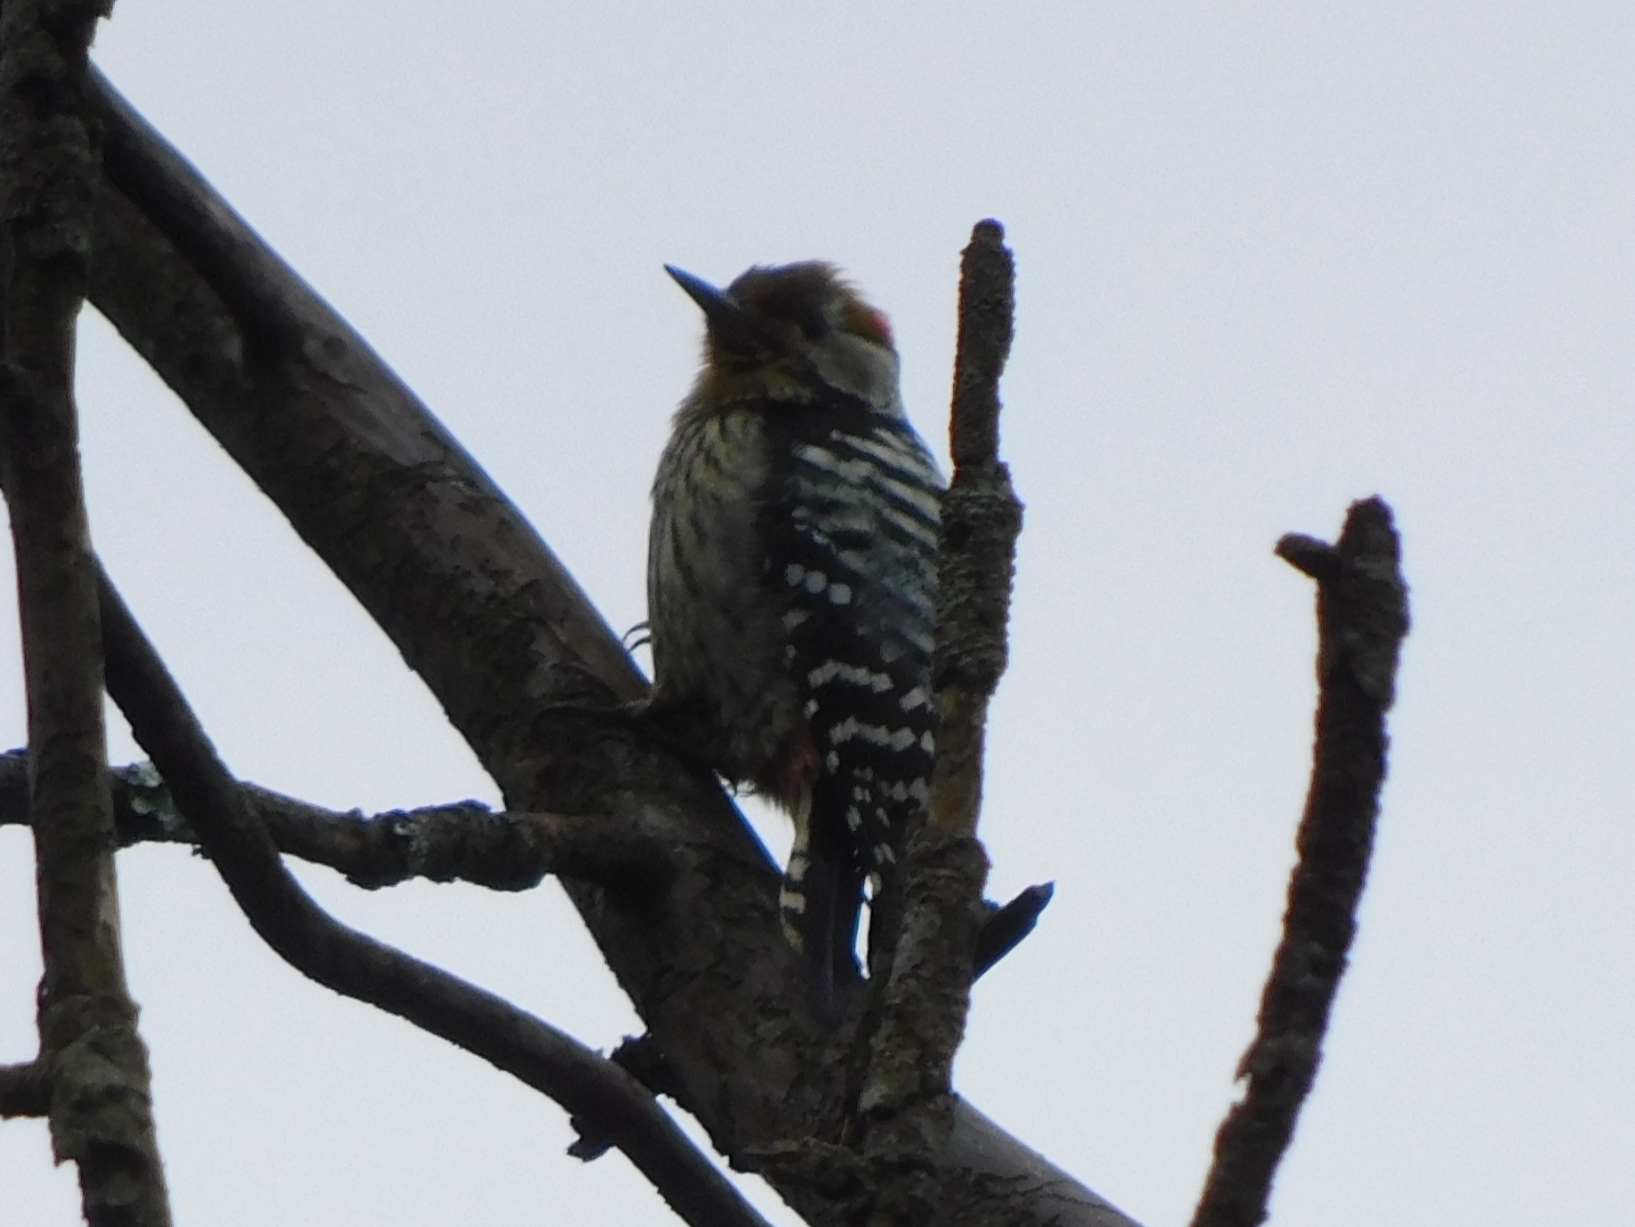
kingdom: Animalia
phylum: Chordata
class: Aves
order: Piciformes
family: Picidae
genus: Dendrocoptes
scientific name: Dendrocoptes auriceps
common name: Brown-fronted woodpecker
